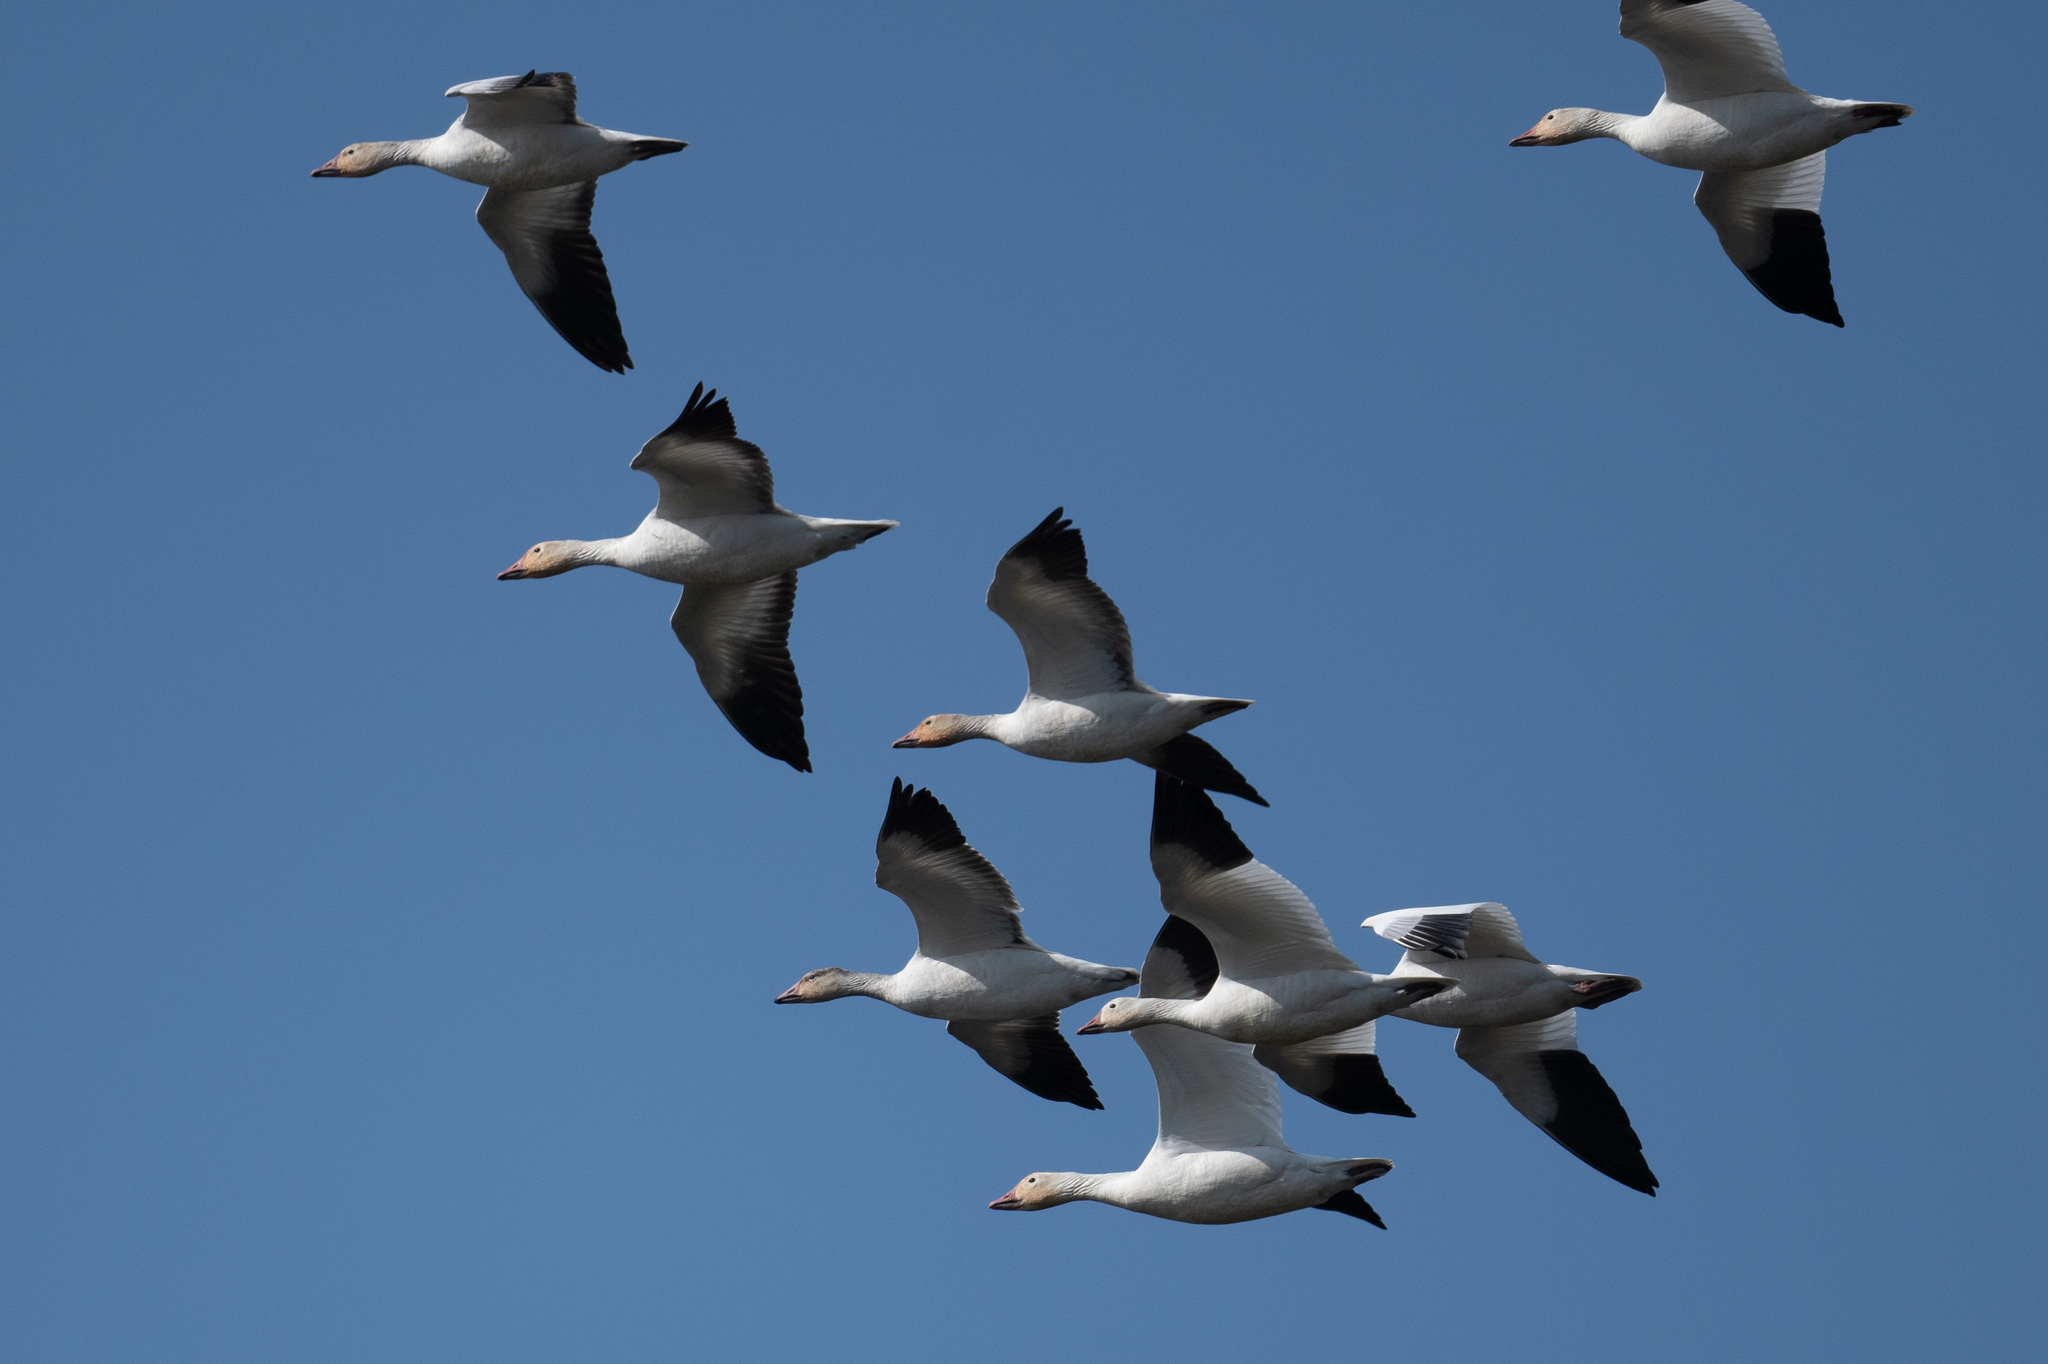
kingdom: Animalia
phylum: Chordata
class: Aves
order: Anseriformes
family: Anatidae
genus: Anser
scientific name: Anser caerulescens
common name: Snow goose
